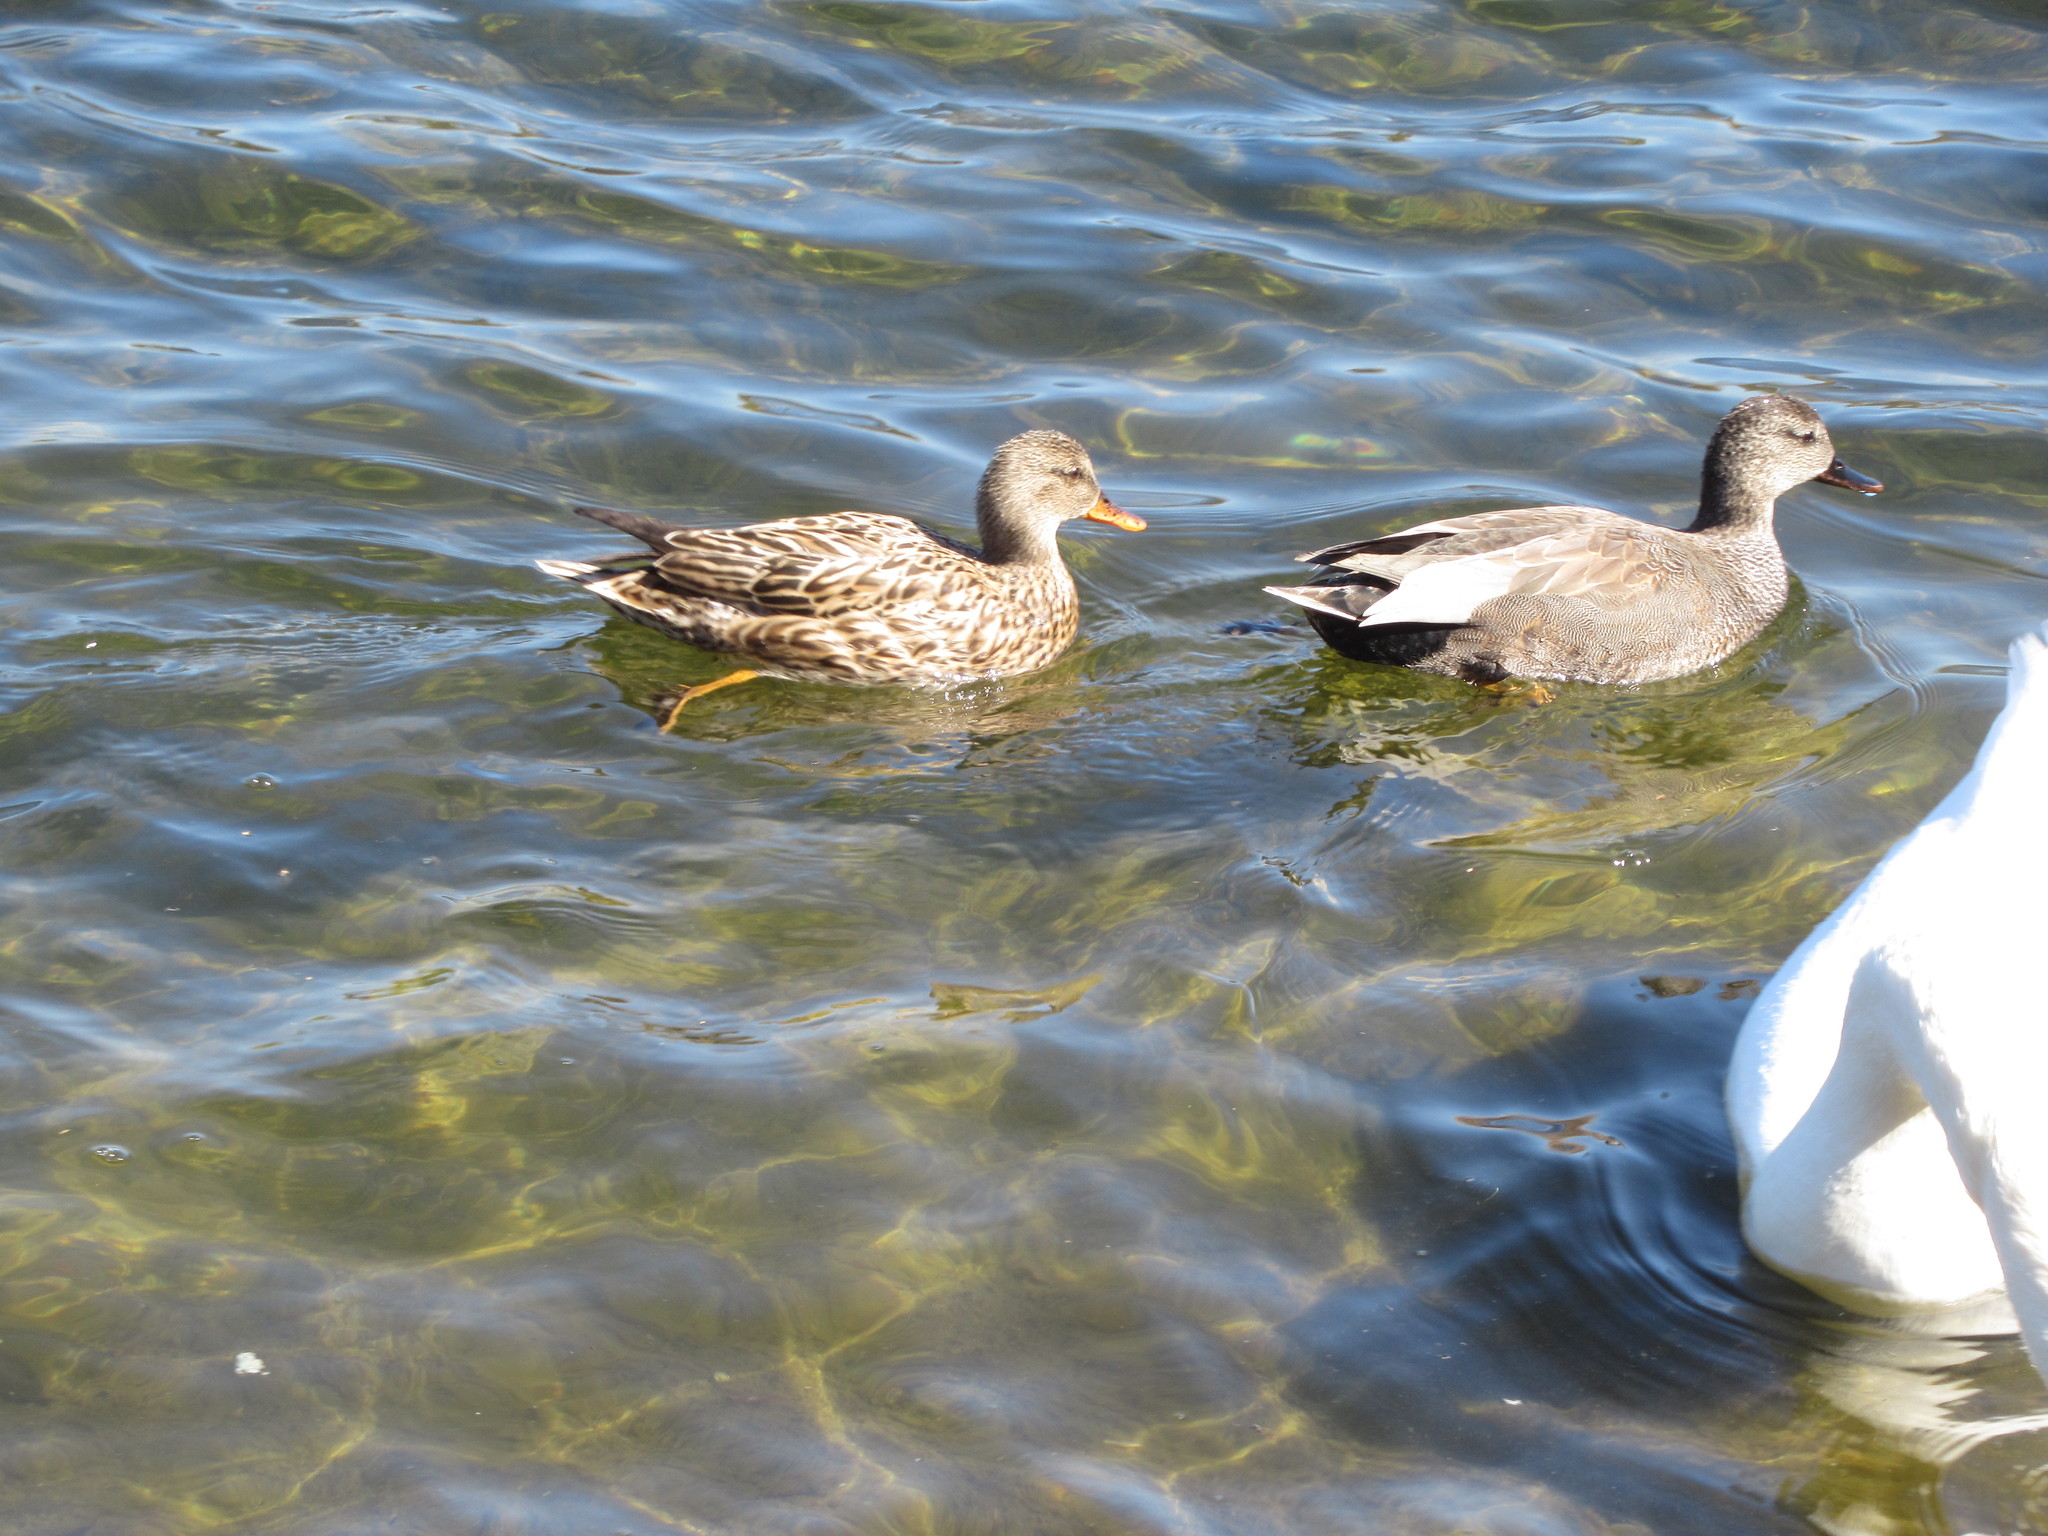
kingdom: Animalia
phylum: Chordata
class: Aves
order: Anseriformes
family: Anatidae
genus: Mareca
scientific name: Mareca strepera
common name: Gadwall
